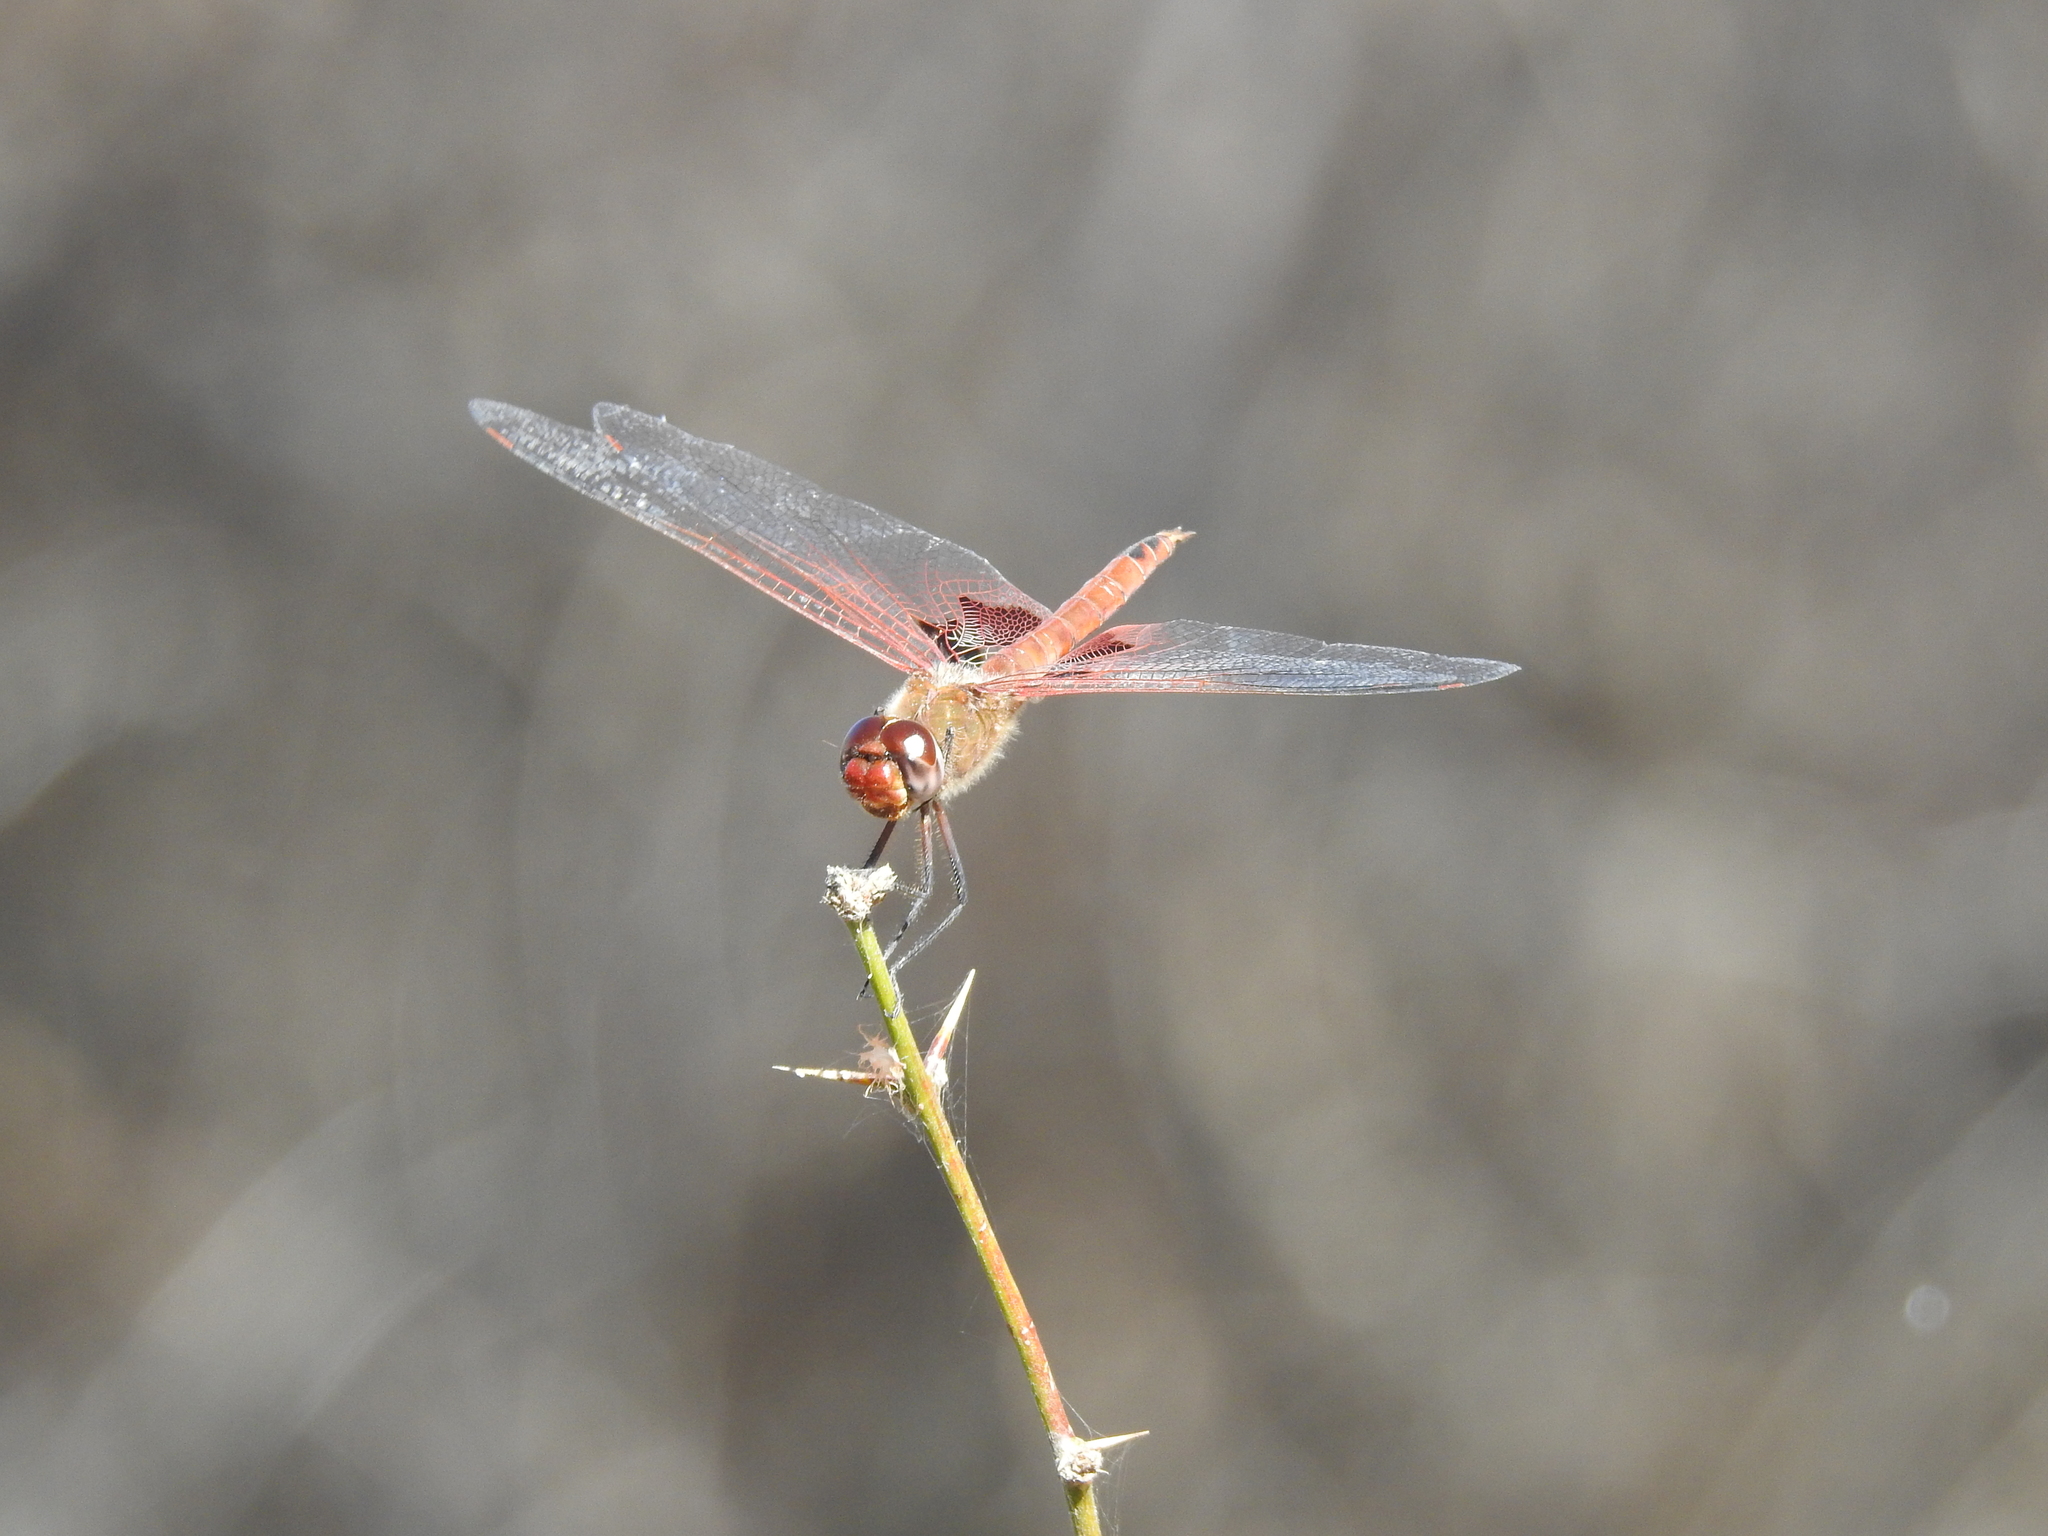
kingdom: Animalia
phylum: Arthropoda
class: Insecta
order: Odonata
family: Libellulidae
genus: Tramea
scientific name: Tramea onusta
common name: Red saddlebags
